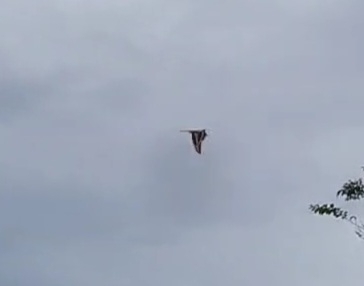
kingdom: Animalia
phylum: Arthropoda
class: Insecta
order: Lepidoptera
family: Papilionidae
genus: Papilio
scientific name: Papilio cresphontes
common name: Giant swallowtail
